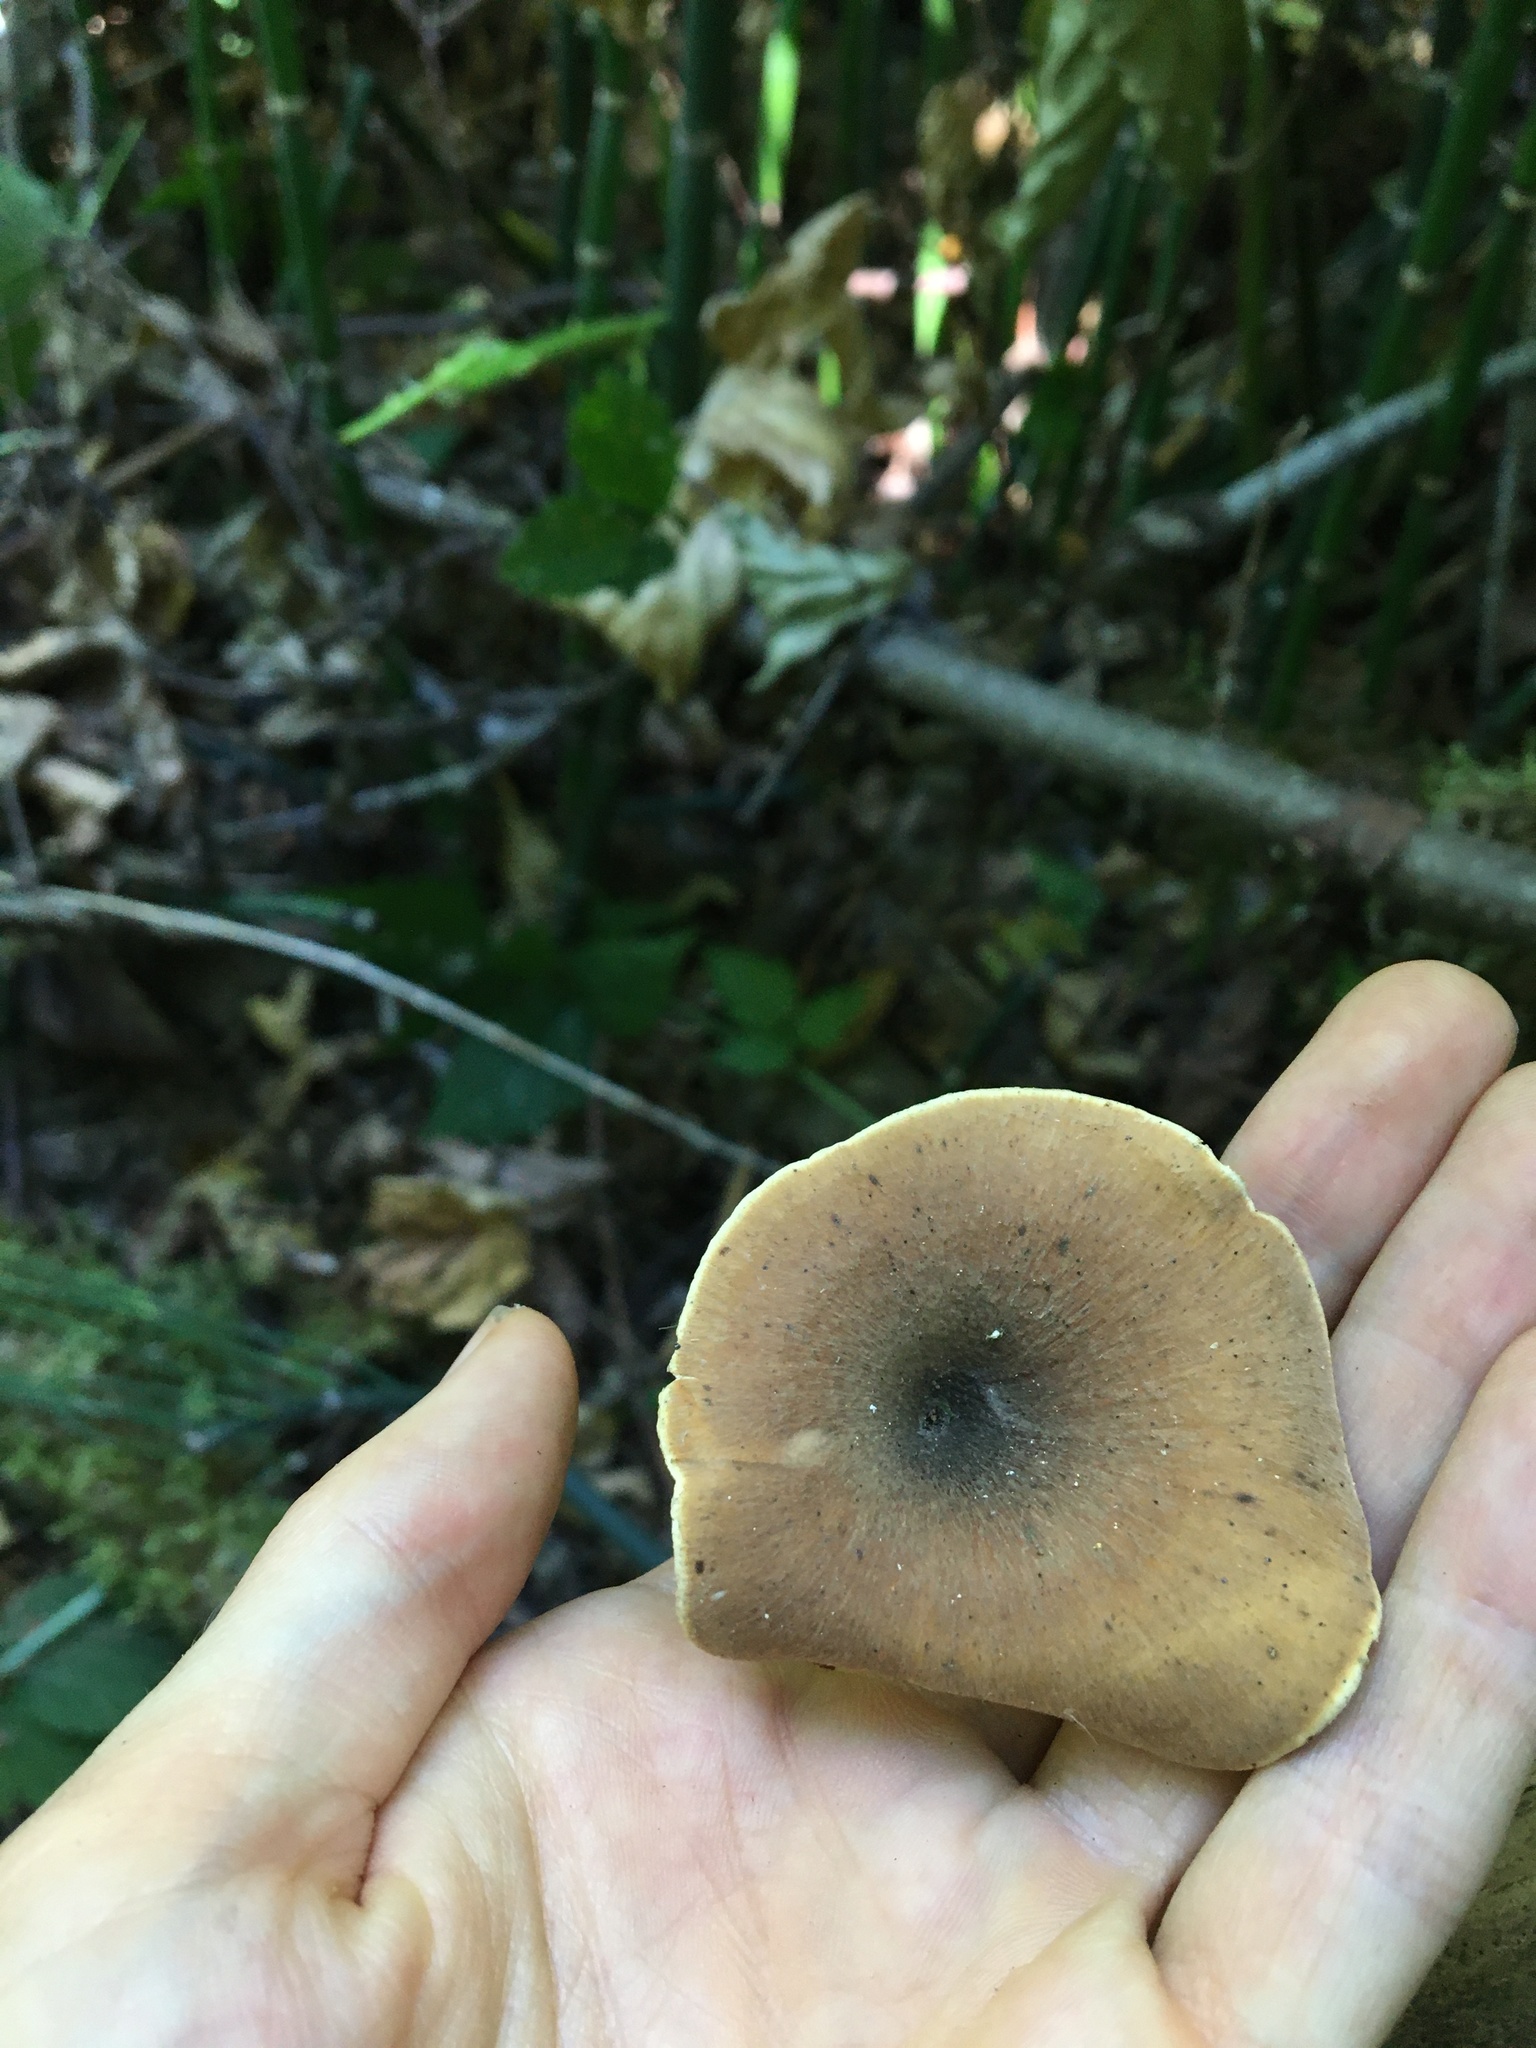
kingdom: Fungi
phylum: Basidiomycota
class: Agaricomycetes
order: Polyporales
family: Polyporaceae
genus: Picipes
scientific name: Picipes badius
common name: Bay polypore
